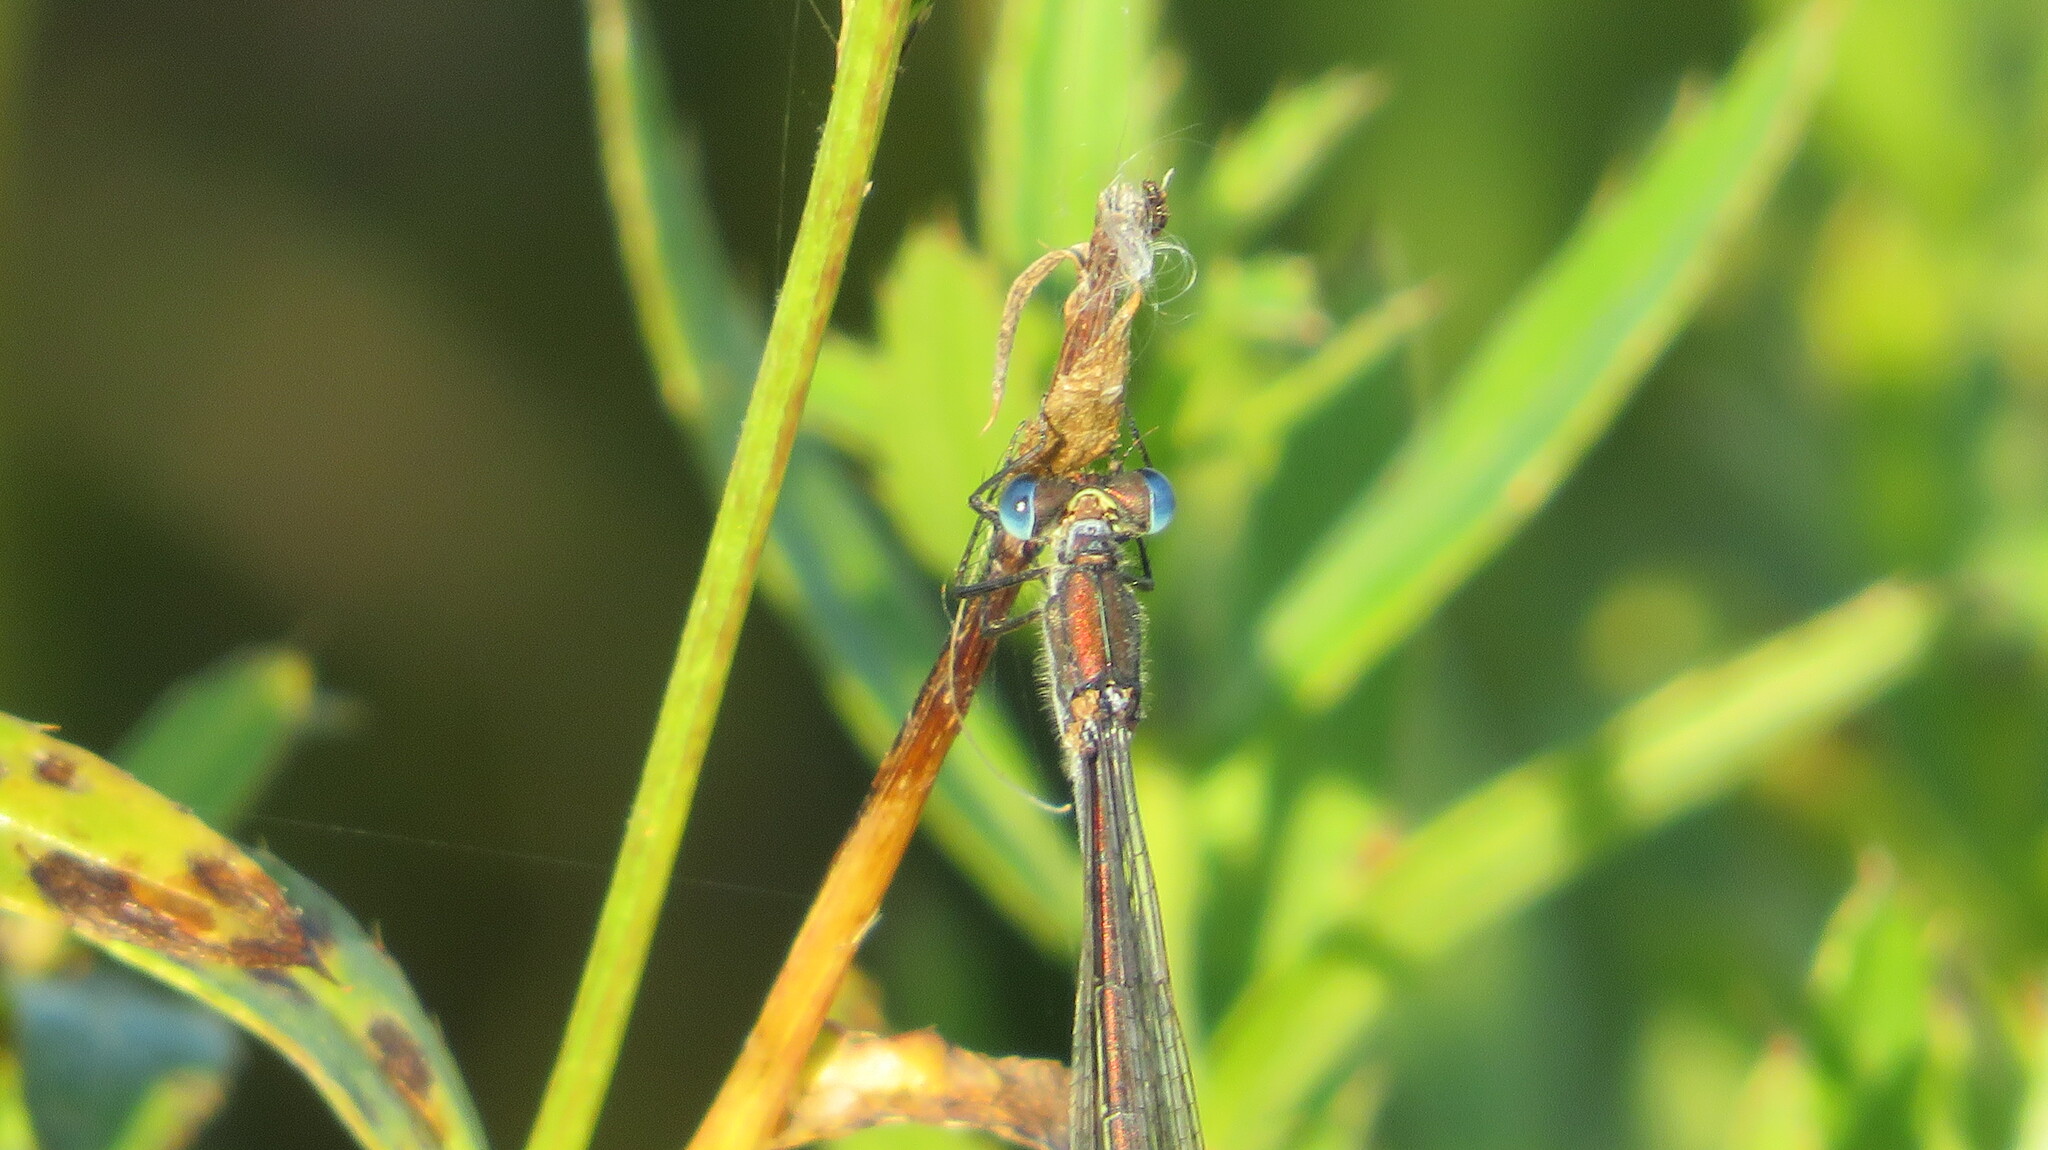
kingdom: Animalia
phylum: Arthropoda
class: Insecta
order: Odonata
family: Lestidae
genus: Lestes
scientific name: Lestes sponsa
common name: Common spreadwing
